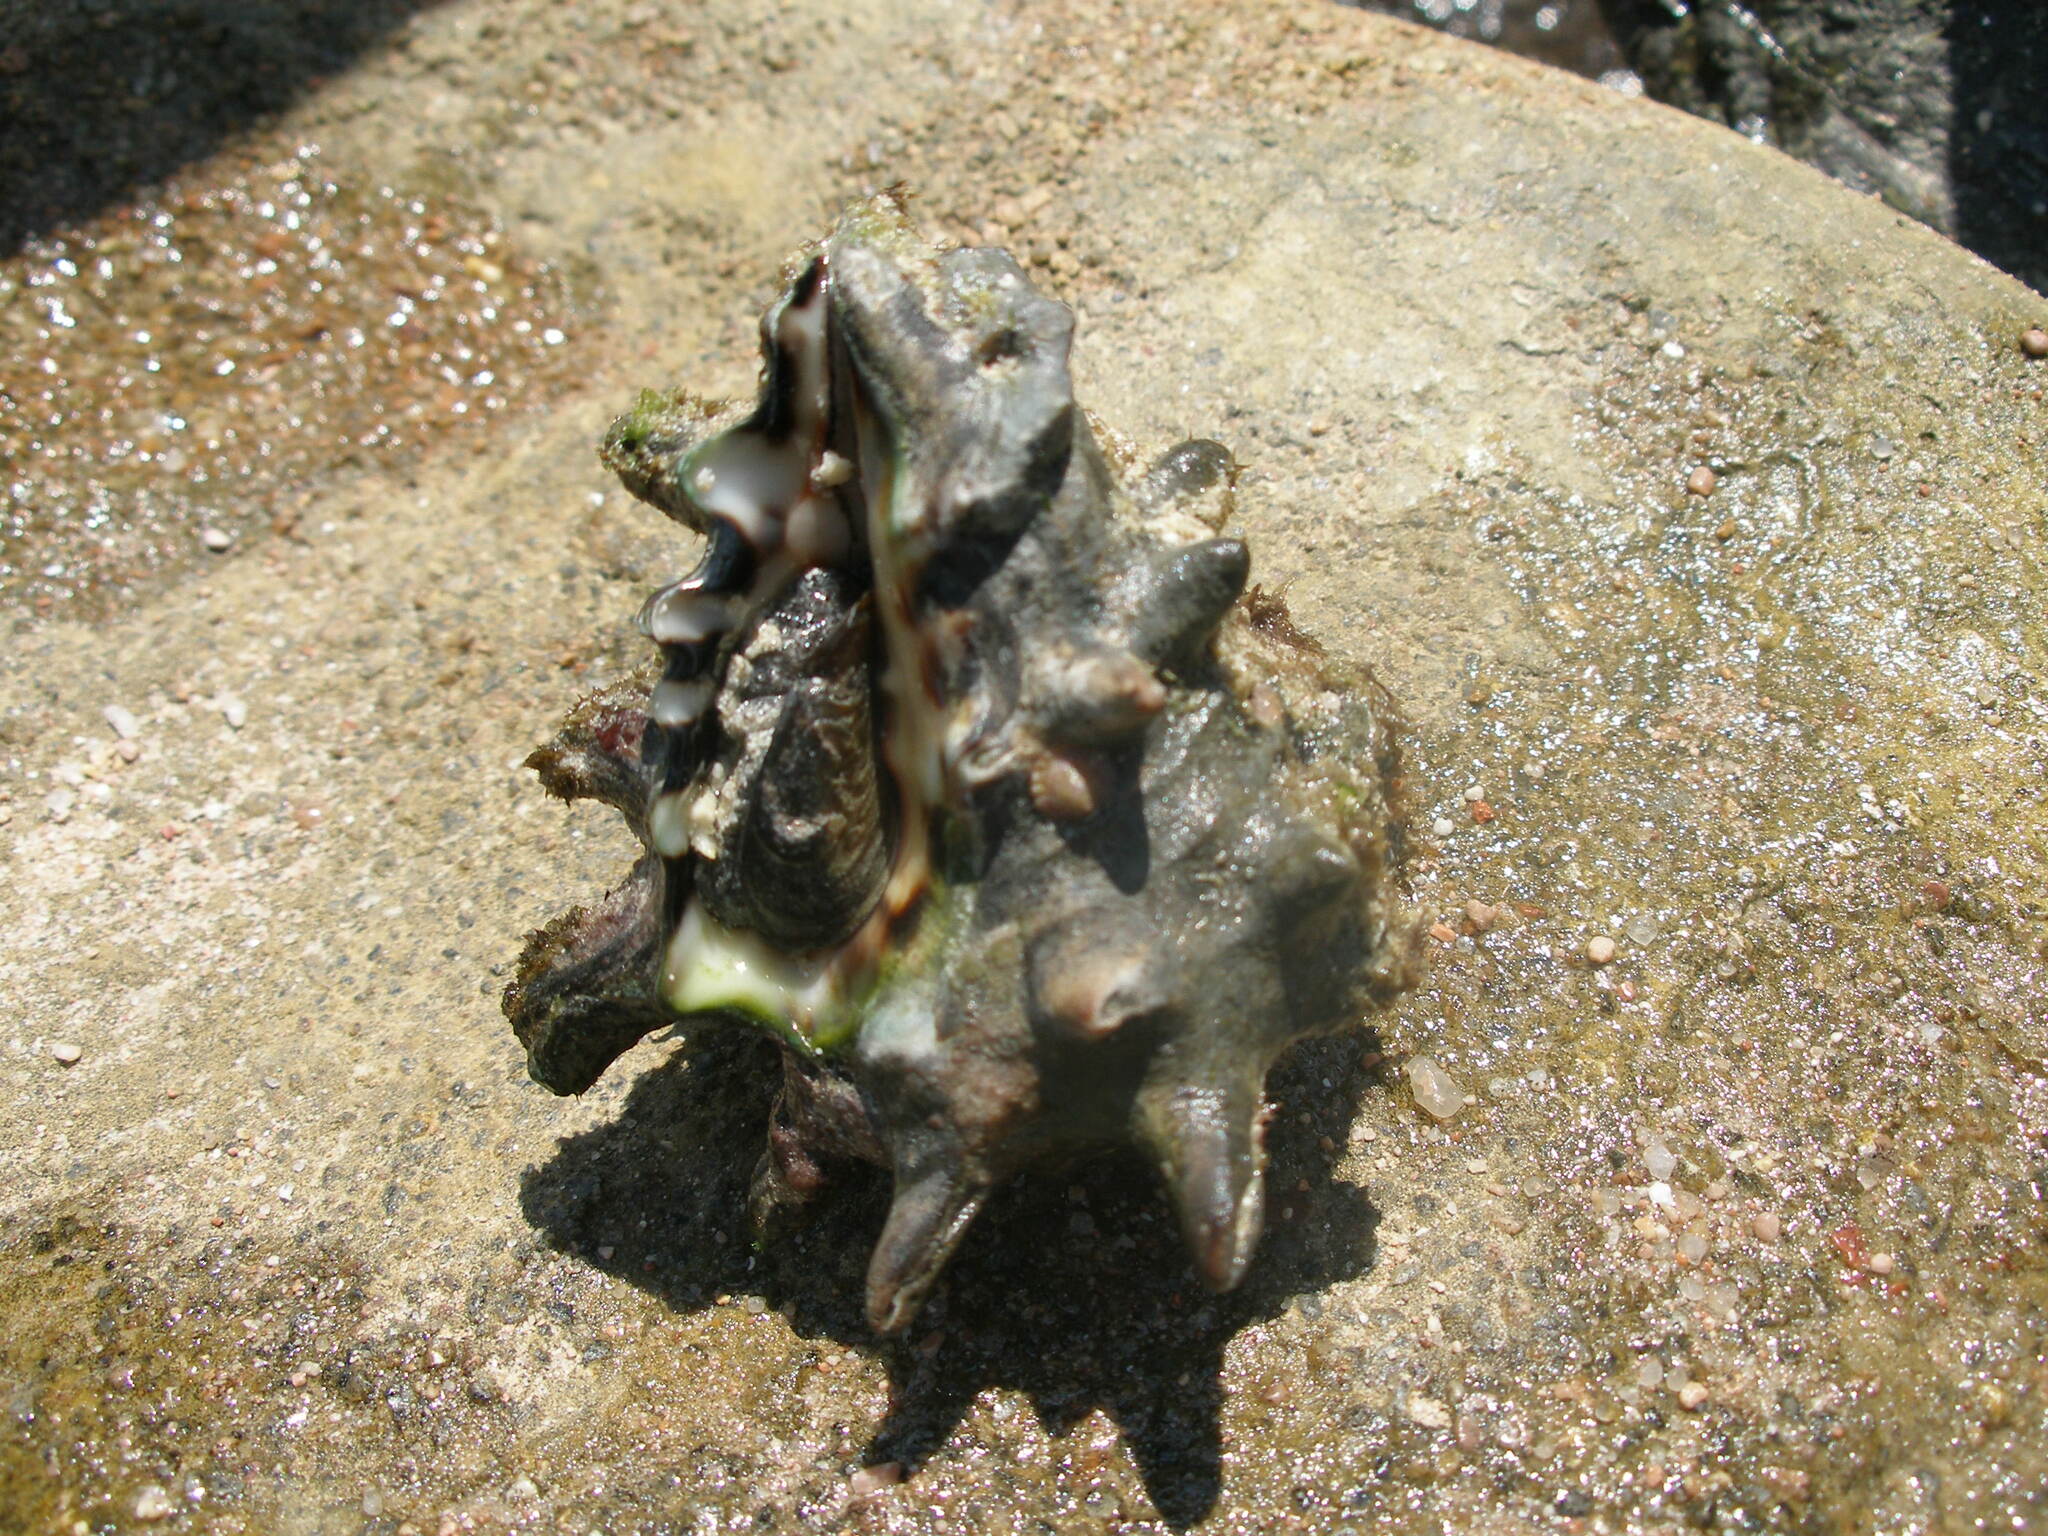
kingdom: Animalia
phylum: Mollusca
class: Gastropoda
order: Neogastropoda
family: Turbinellidae
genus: Vasum
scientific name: Vasum turbinellus
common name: Pacific top vase
